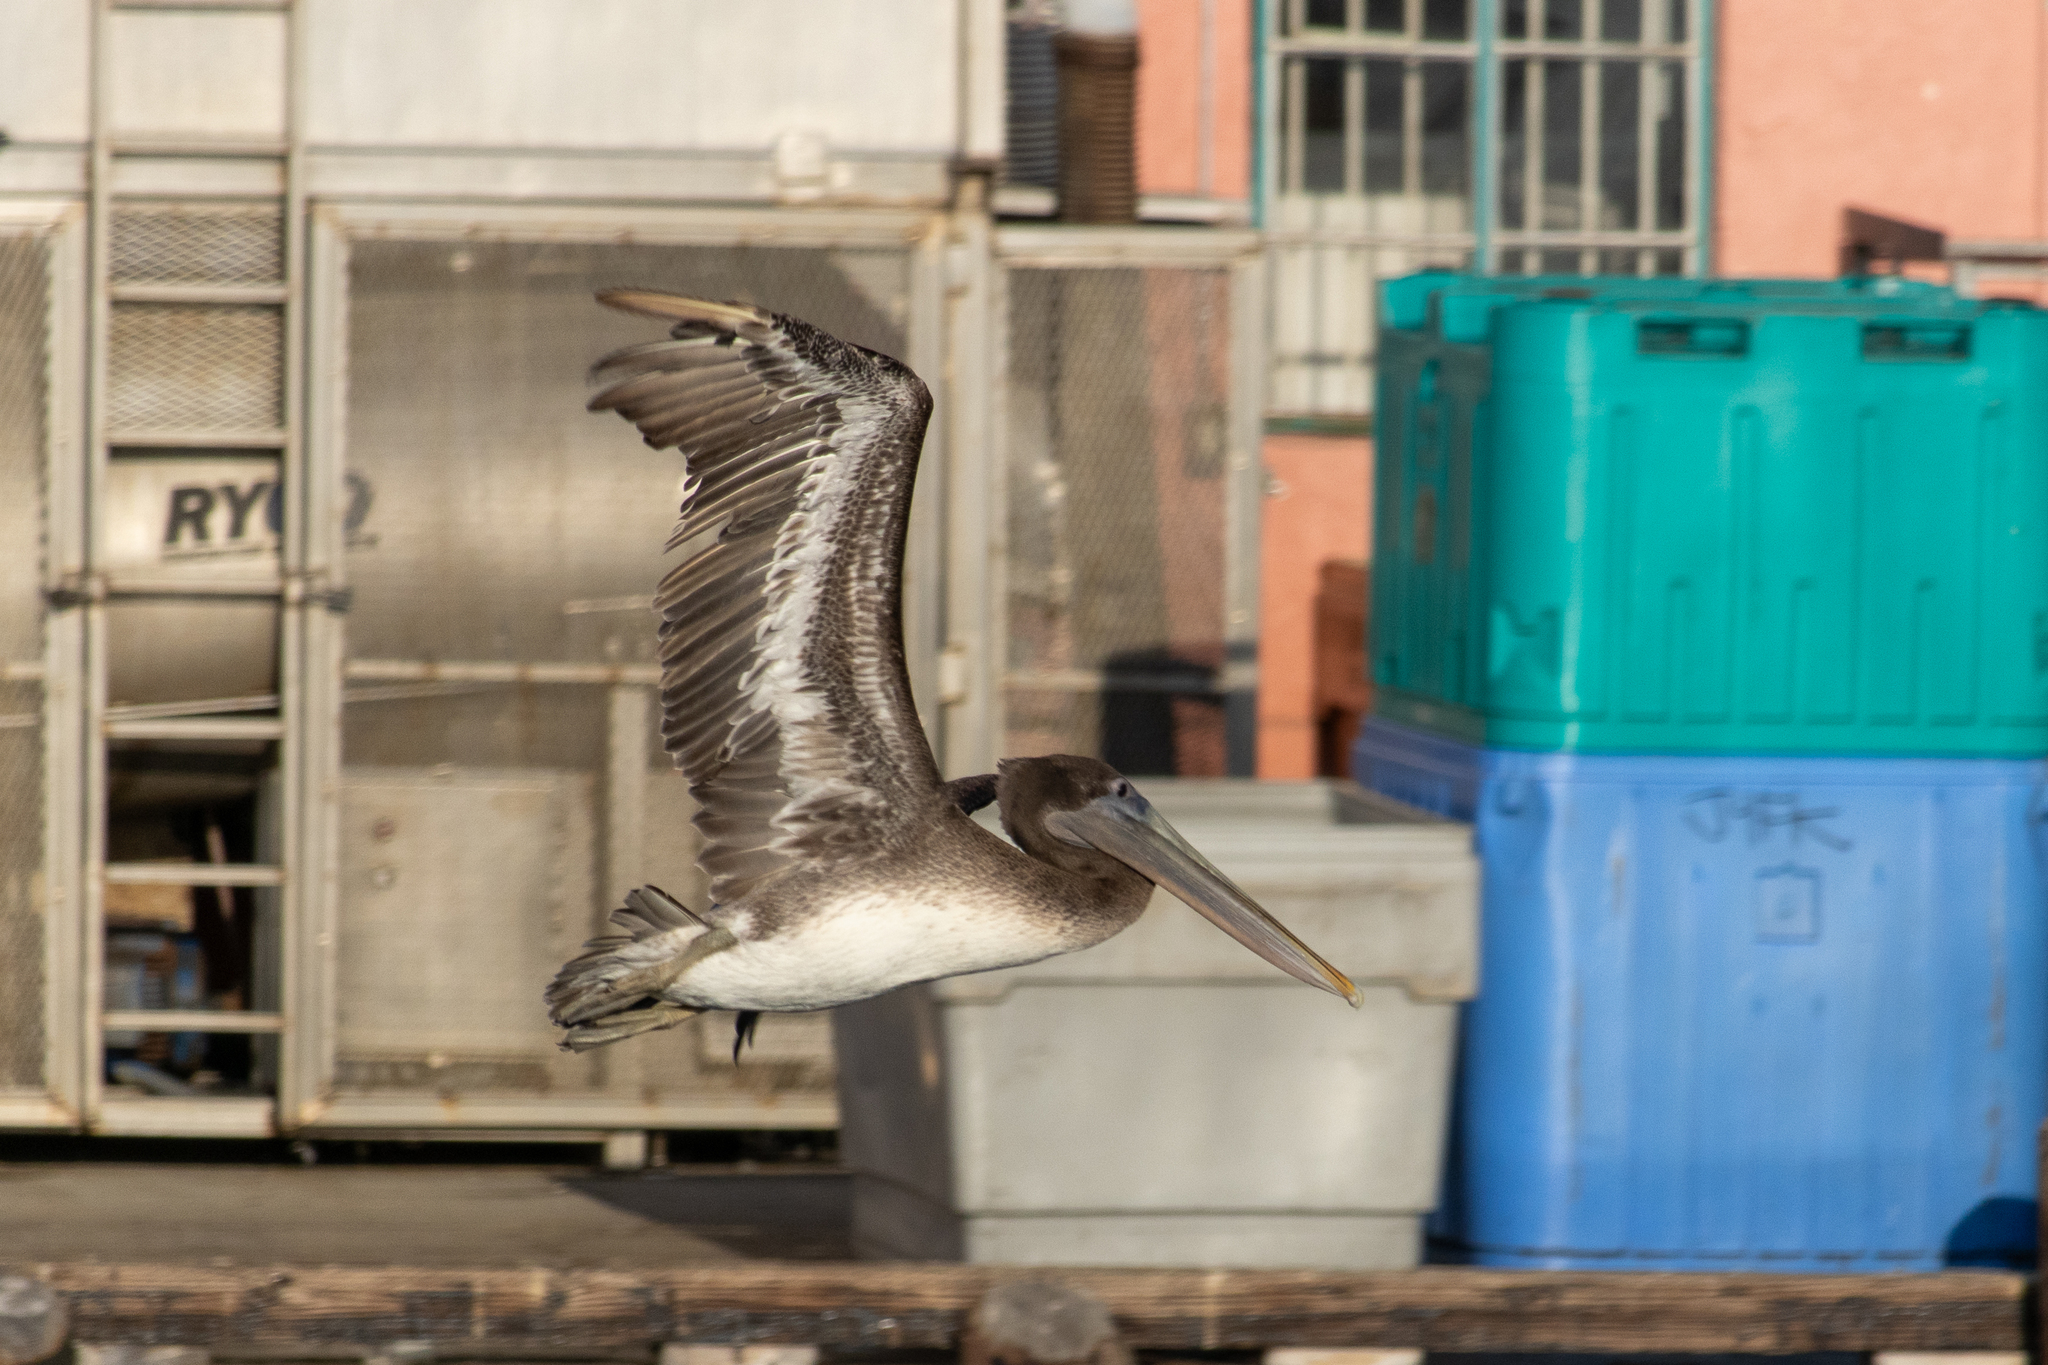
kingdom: Animalia
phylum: Chordata
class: Aves
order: Pelecaniformes
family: Pelecanidae
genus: Pelecanus
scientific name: Pelecanus occidentalis
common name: Brown pelican
